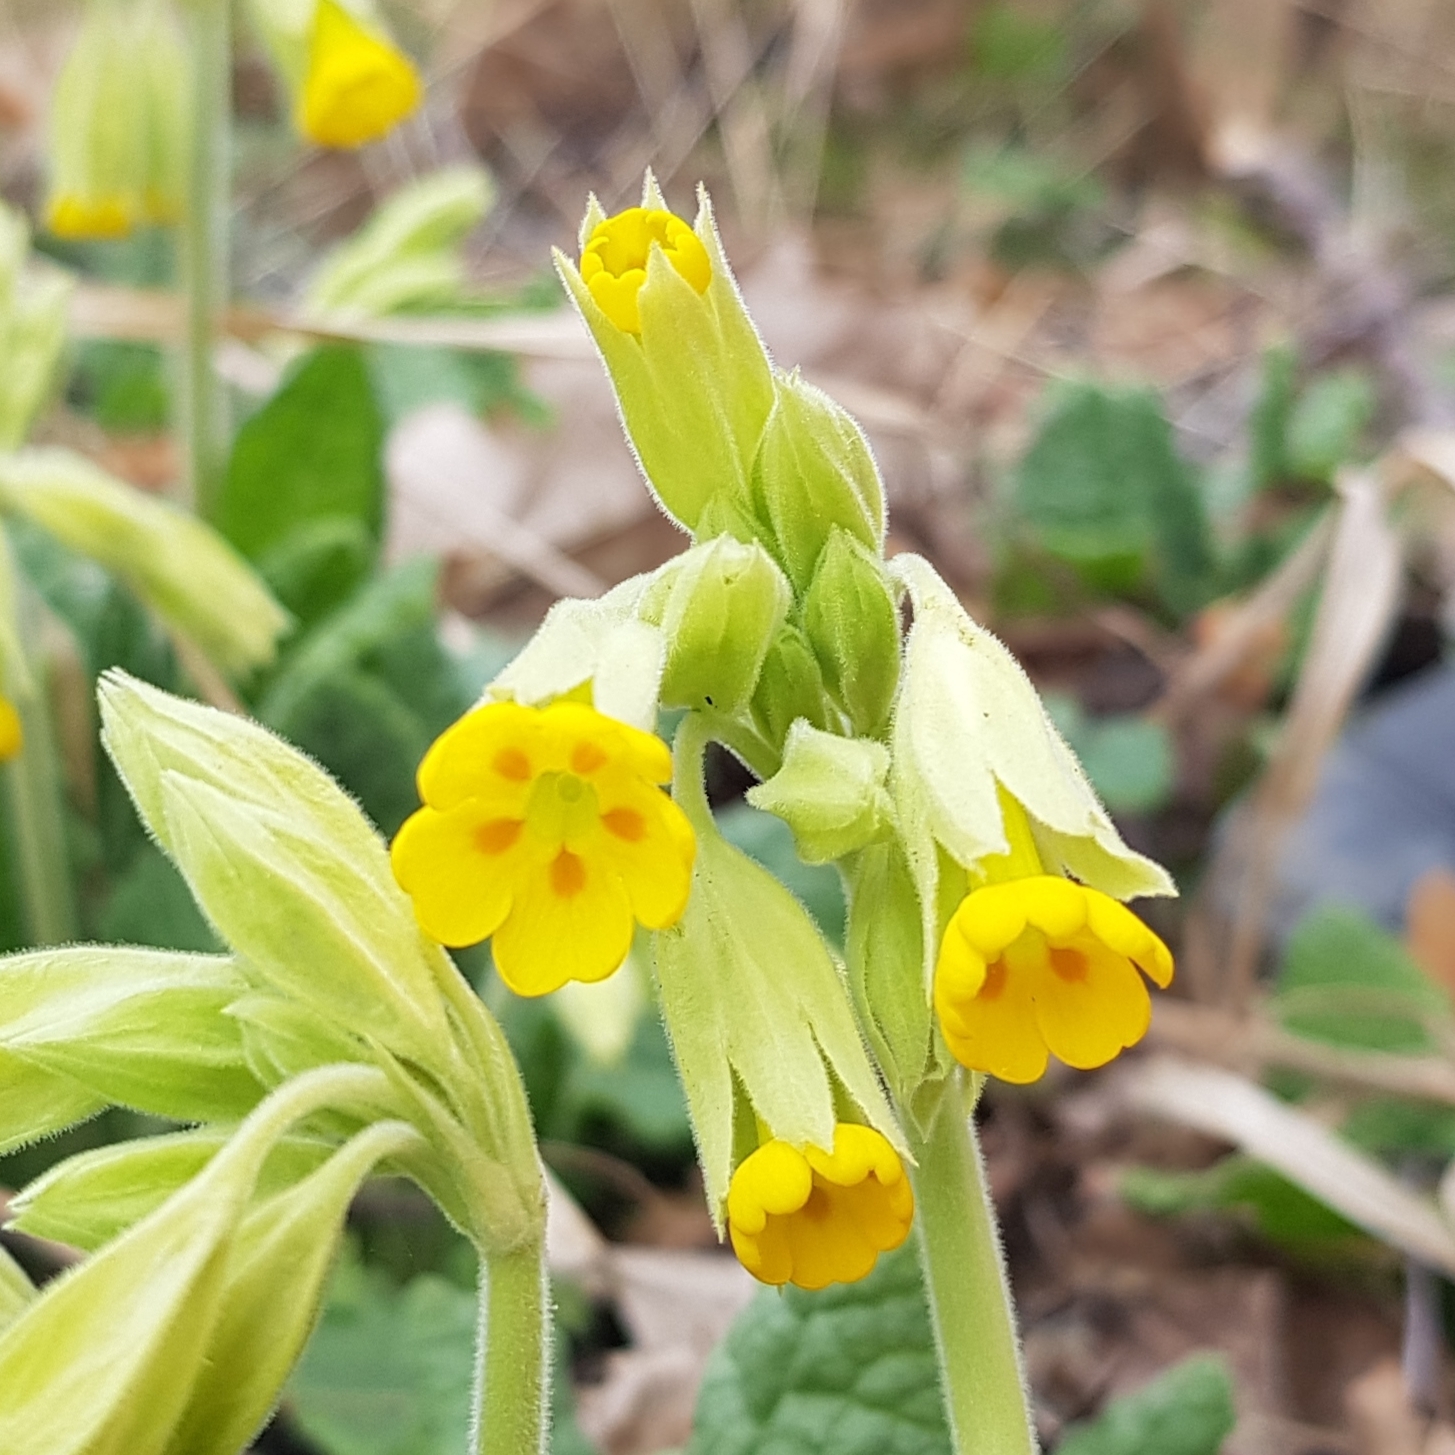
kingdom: Plantae
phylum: Tracheophyta
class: Magnoliopsida
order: Ericales
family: Primulaceae
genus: Primula
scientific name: Primula veris
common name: Cowslip
